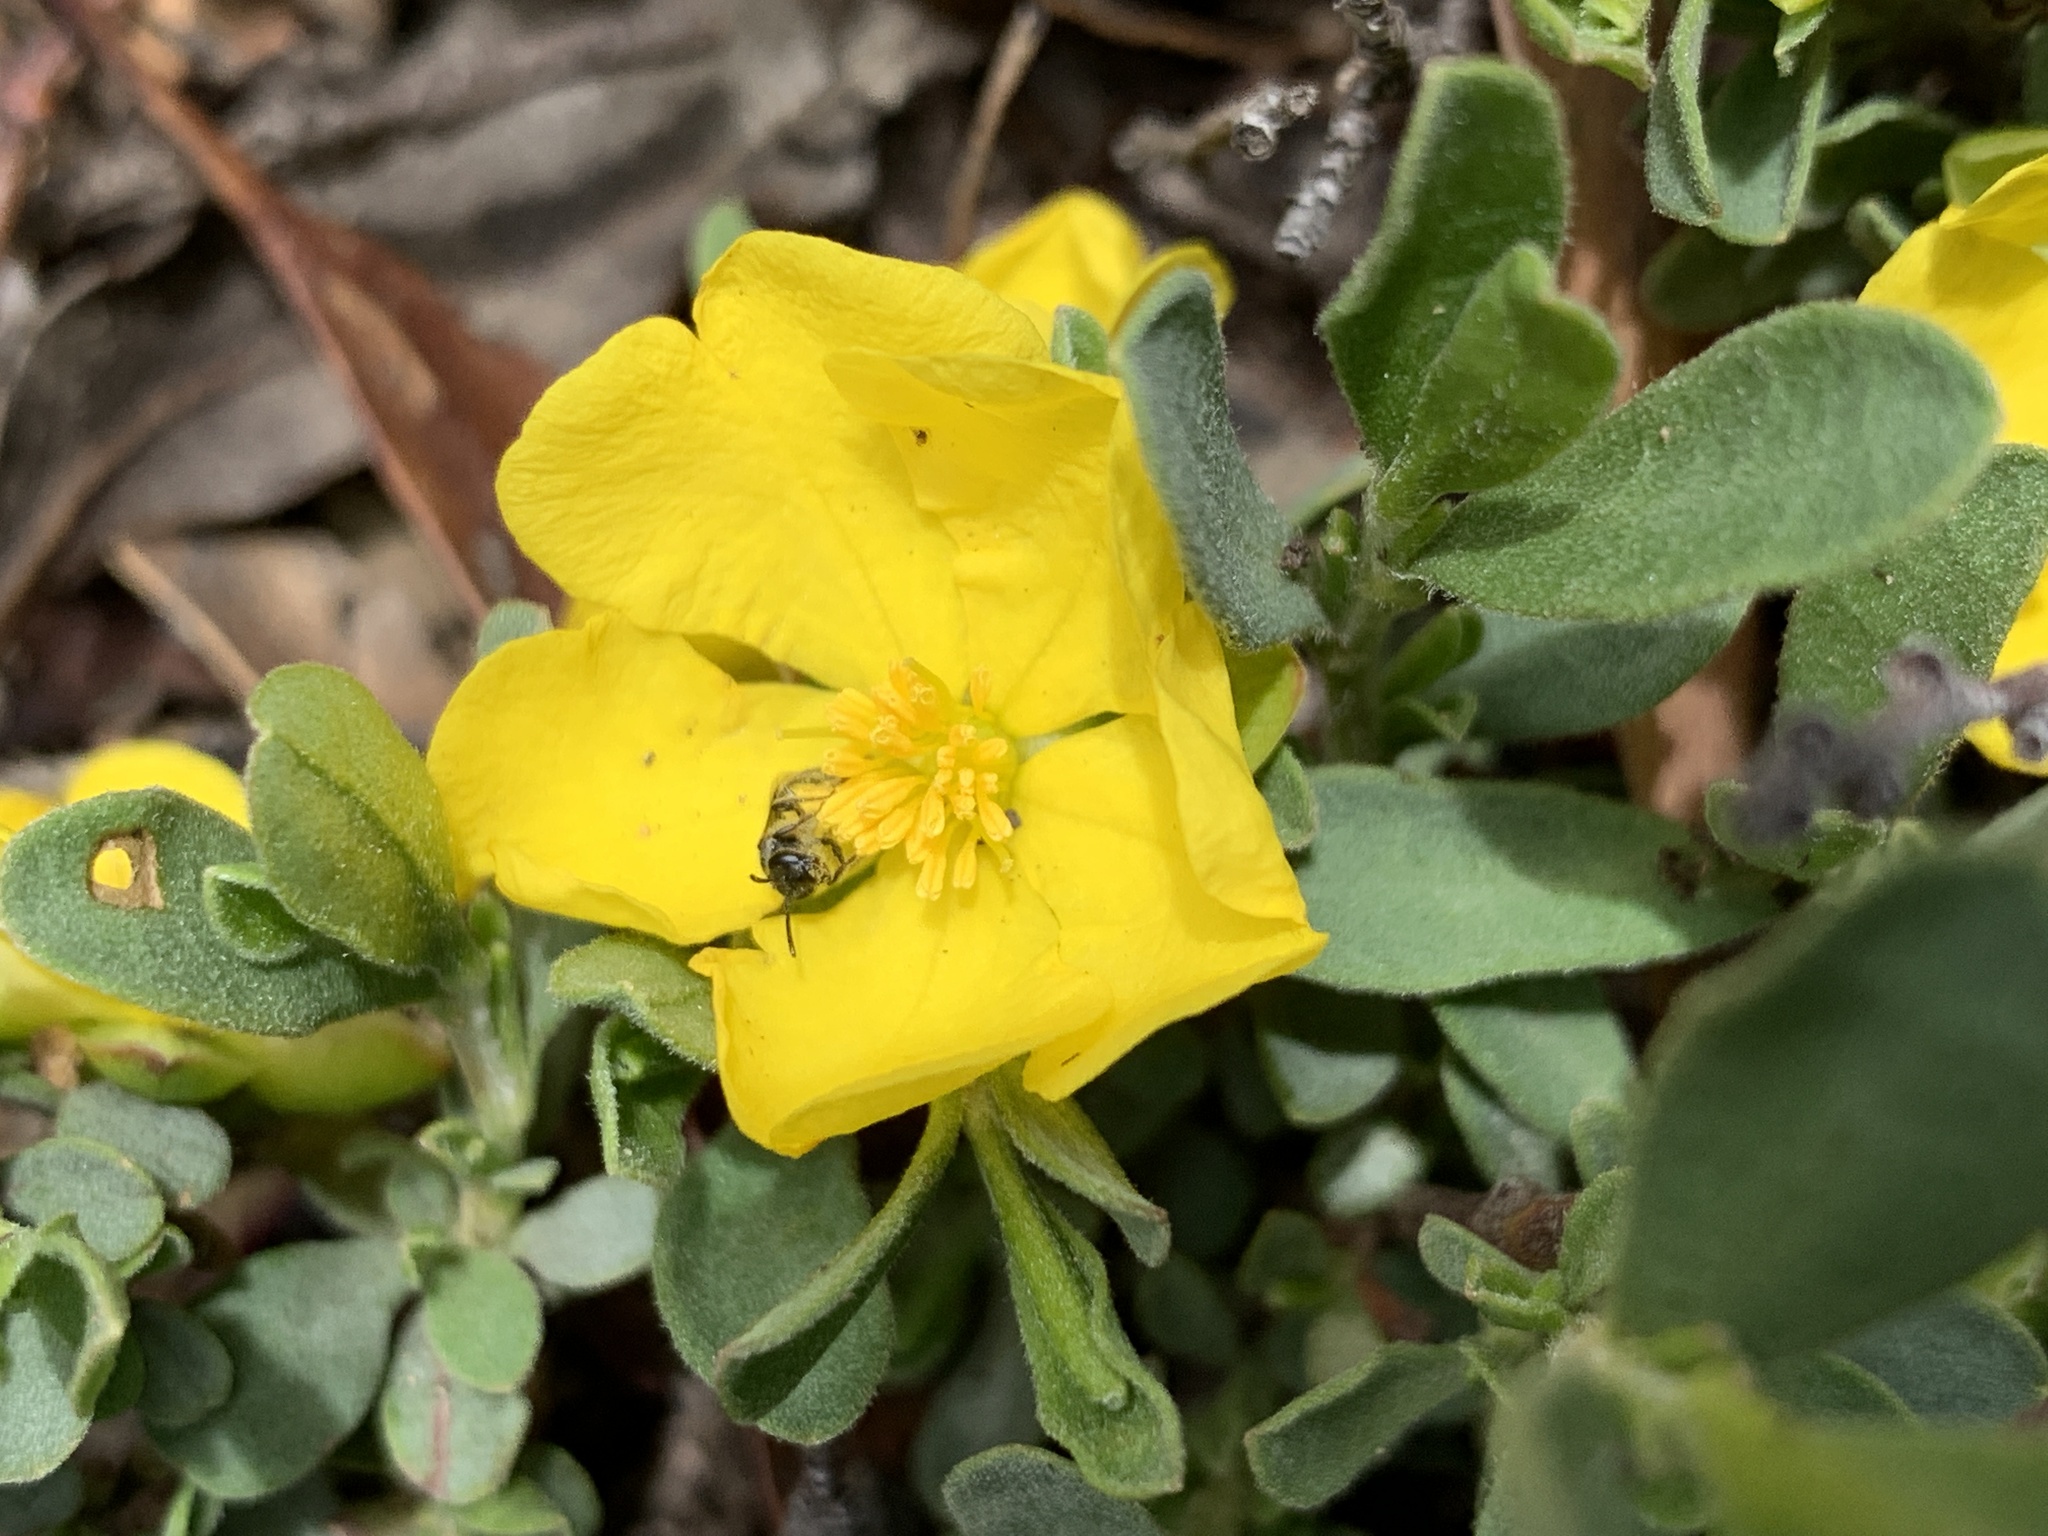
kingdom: Plantae
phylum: Tracheophyta
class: Magnoliopsida
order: Dilleniales
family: Dilleniaceae
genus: Hibbertia
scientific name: Hibbertia obtusifolia
